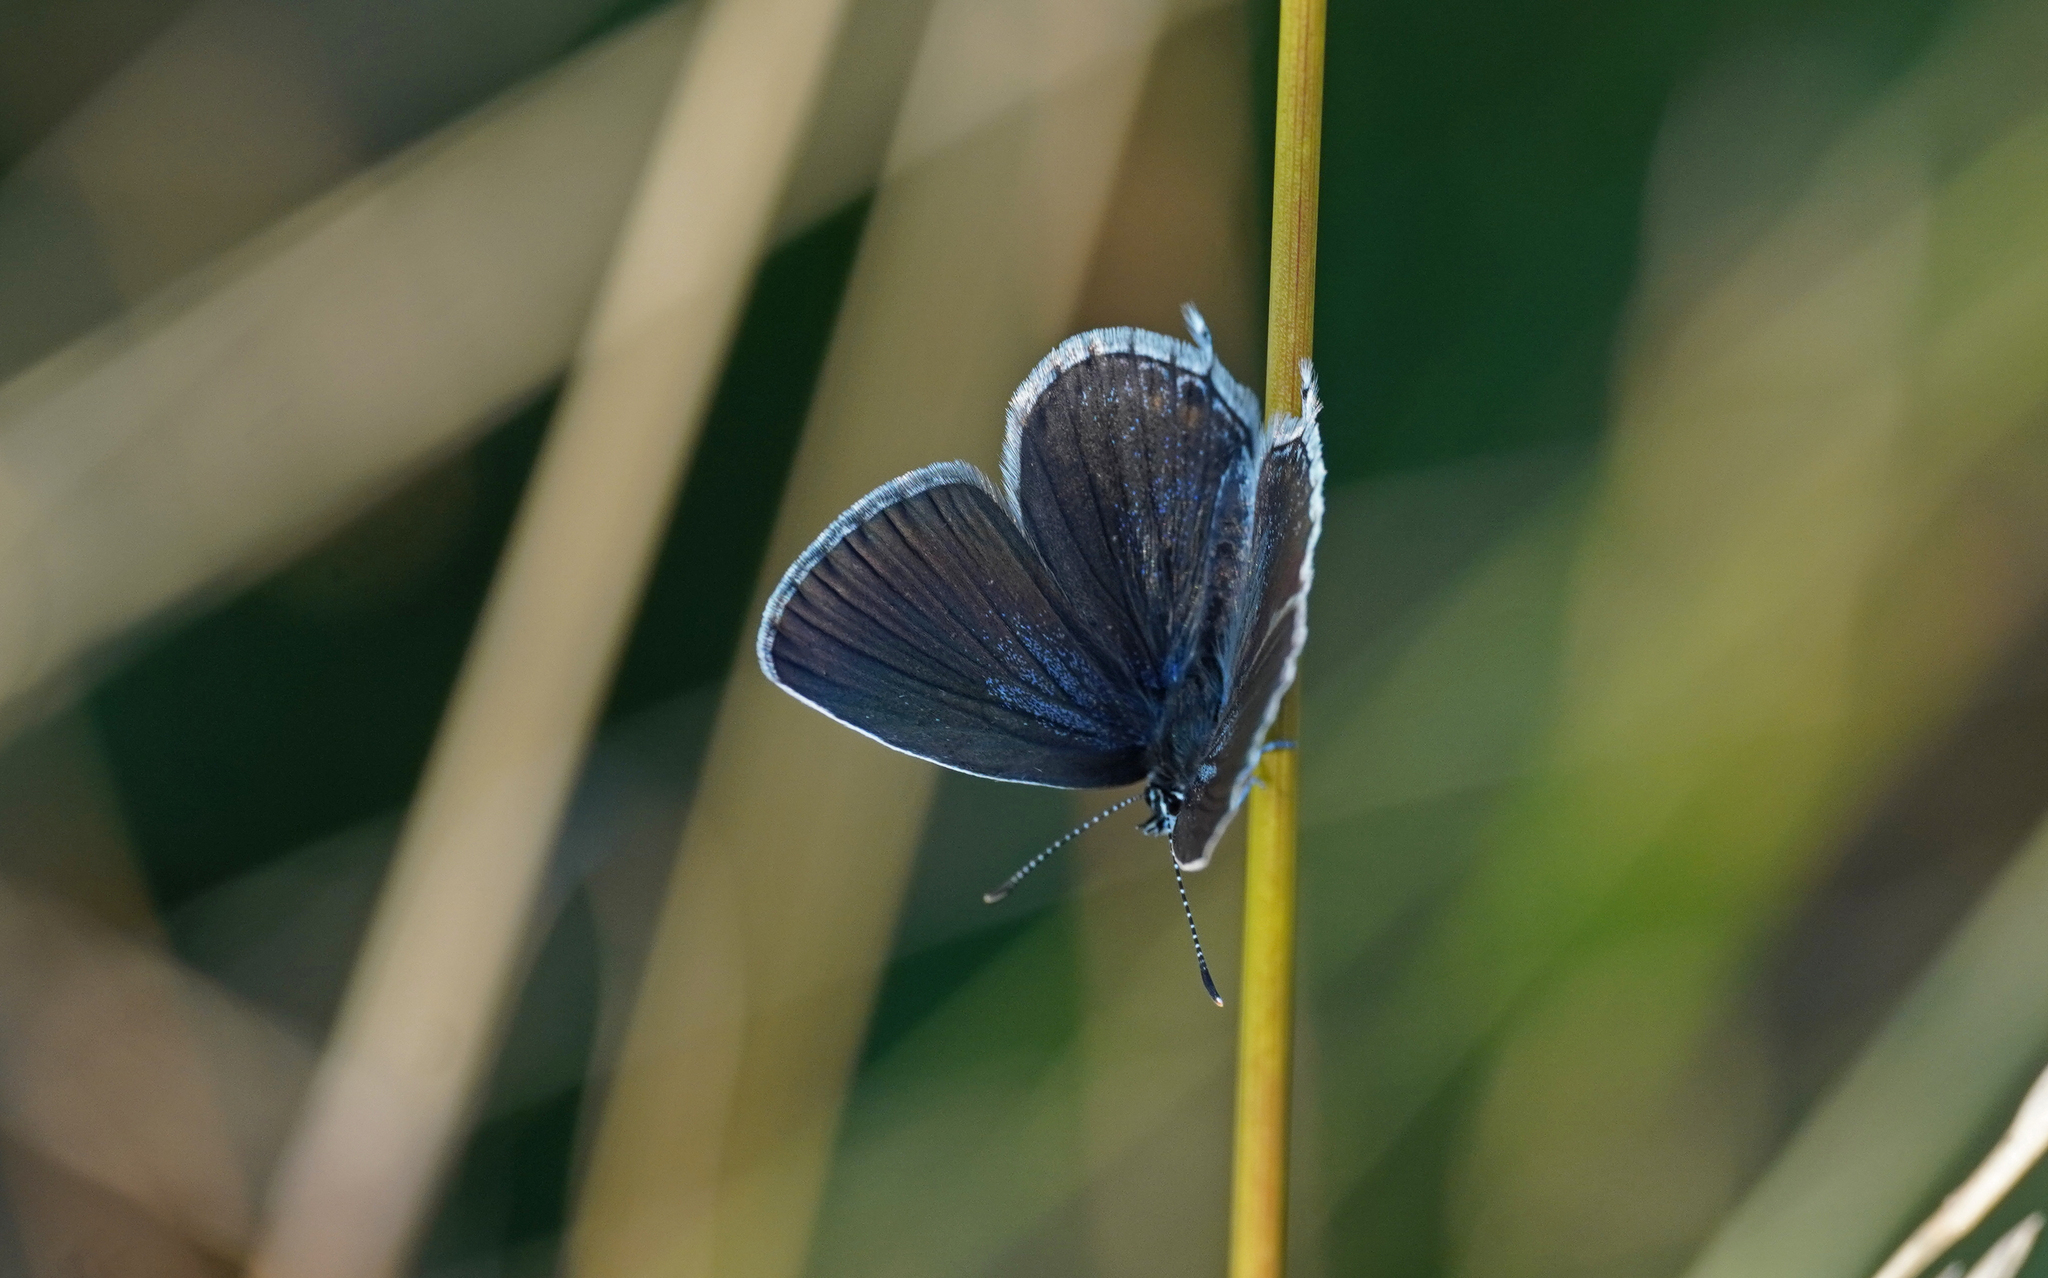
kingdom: Animalia
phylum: Arthropoda
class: Insecta
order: Lepidoptera
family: Lycaenidae
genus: Elkalyce
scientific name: Elkalyce argiades
